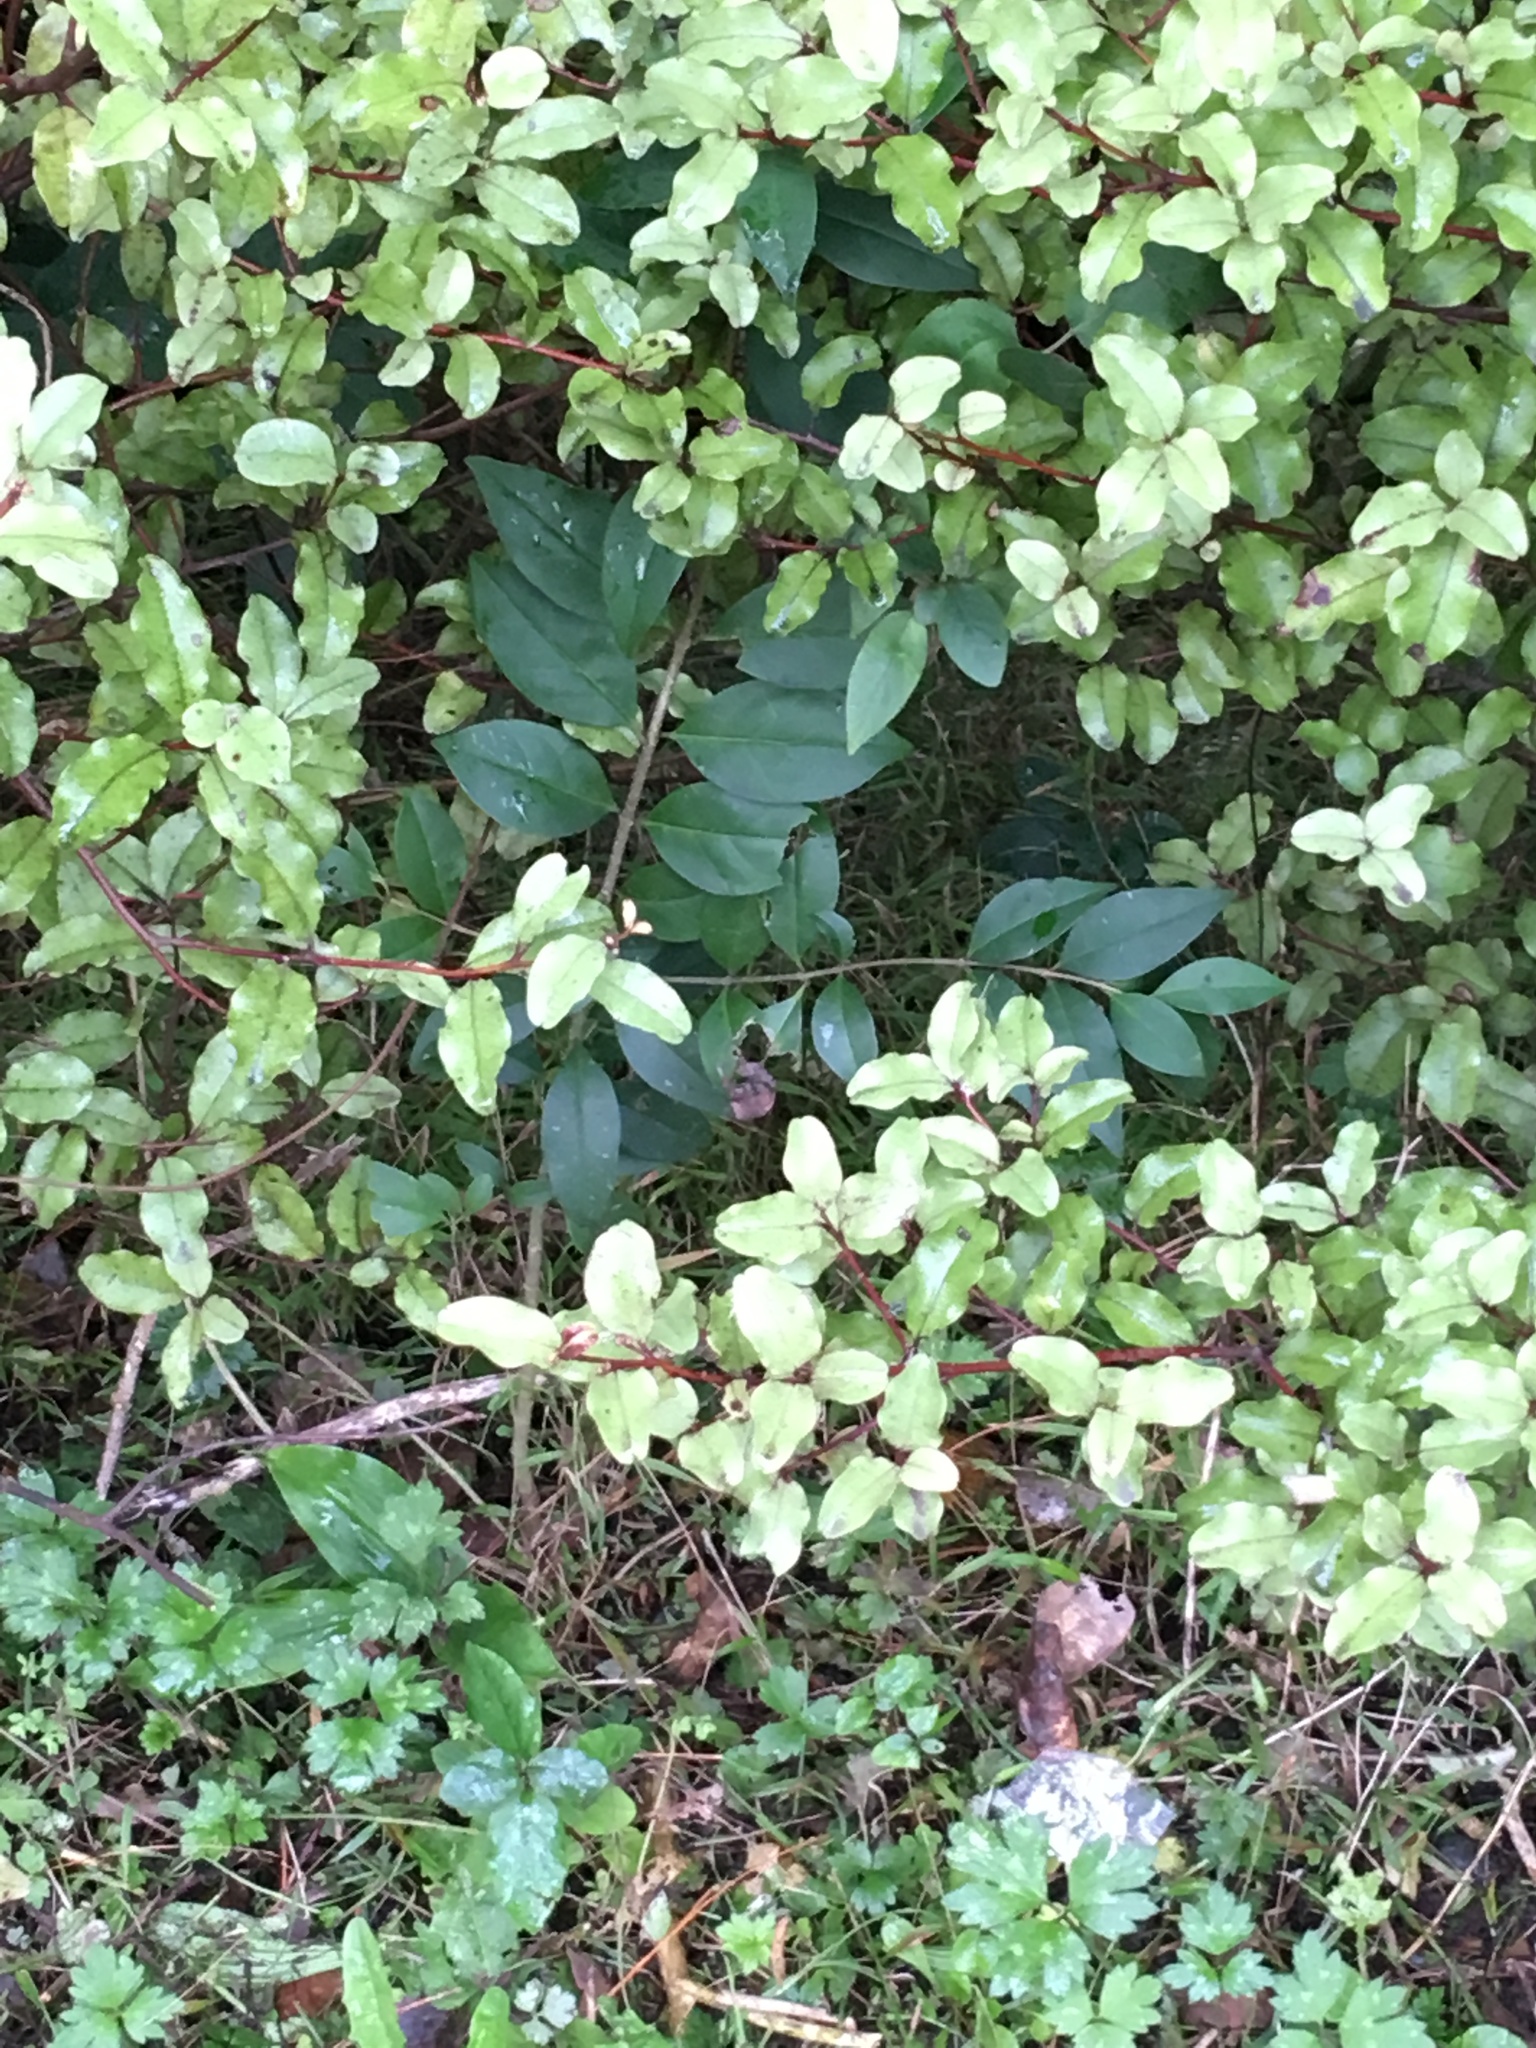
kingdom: Plantae
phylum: Tracheophyta
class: Magnoliopsida
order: Ericales
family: Primulaceae
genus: Myrsine
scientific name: Myrsine australis
